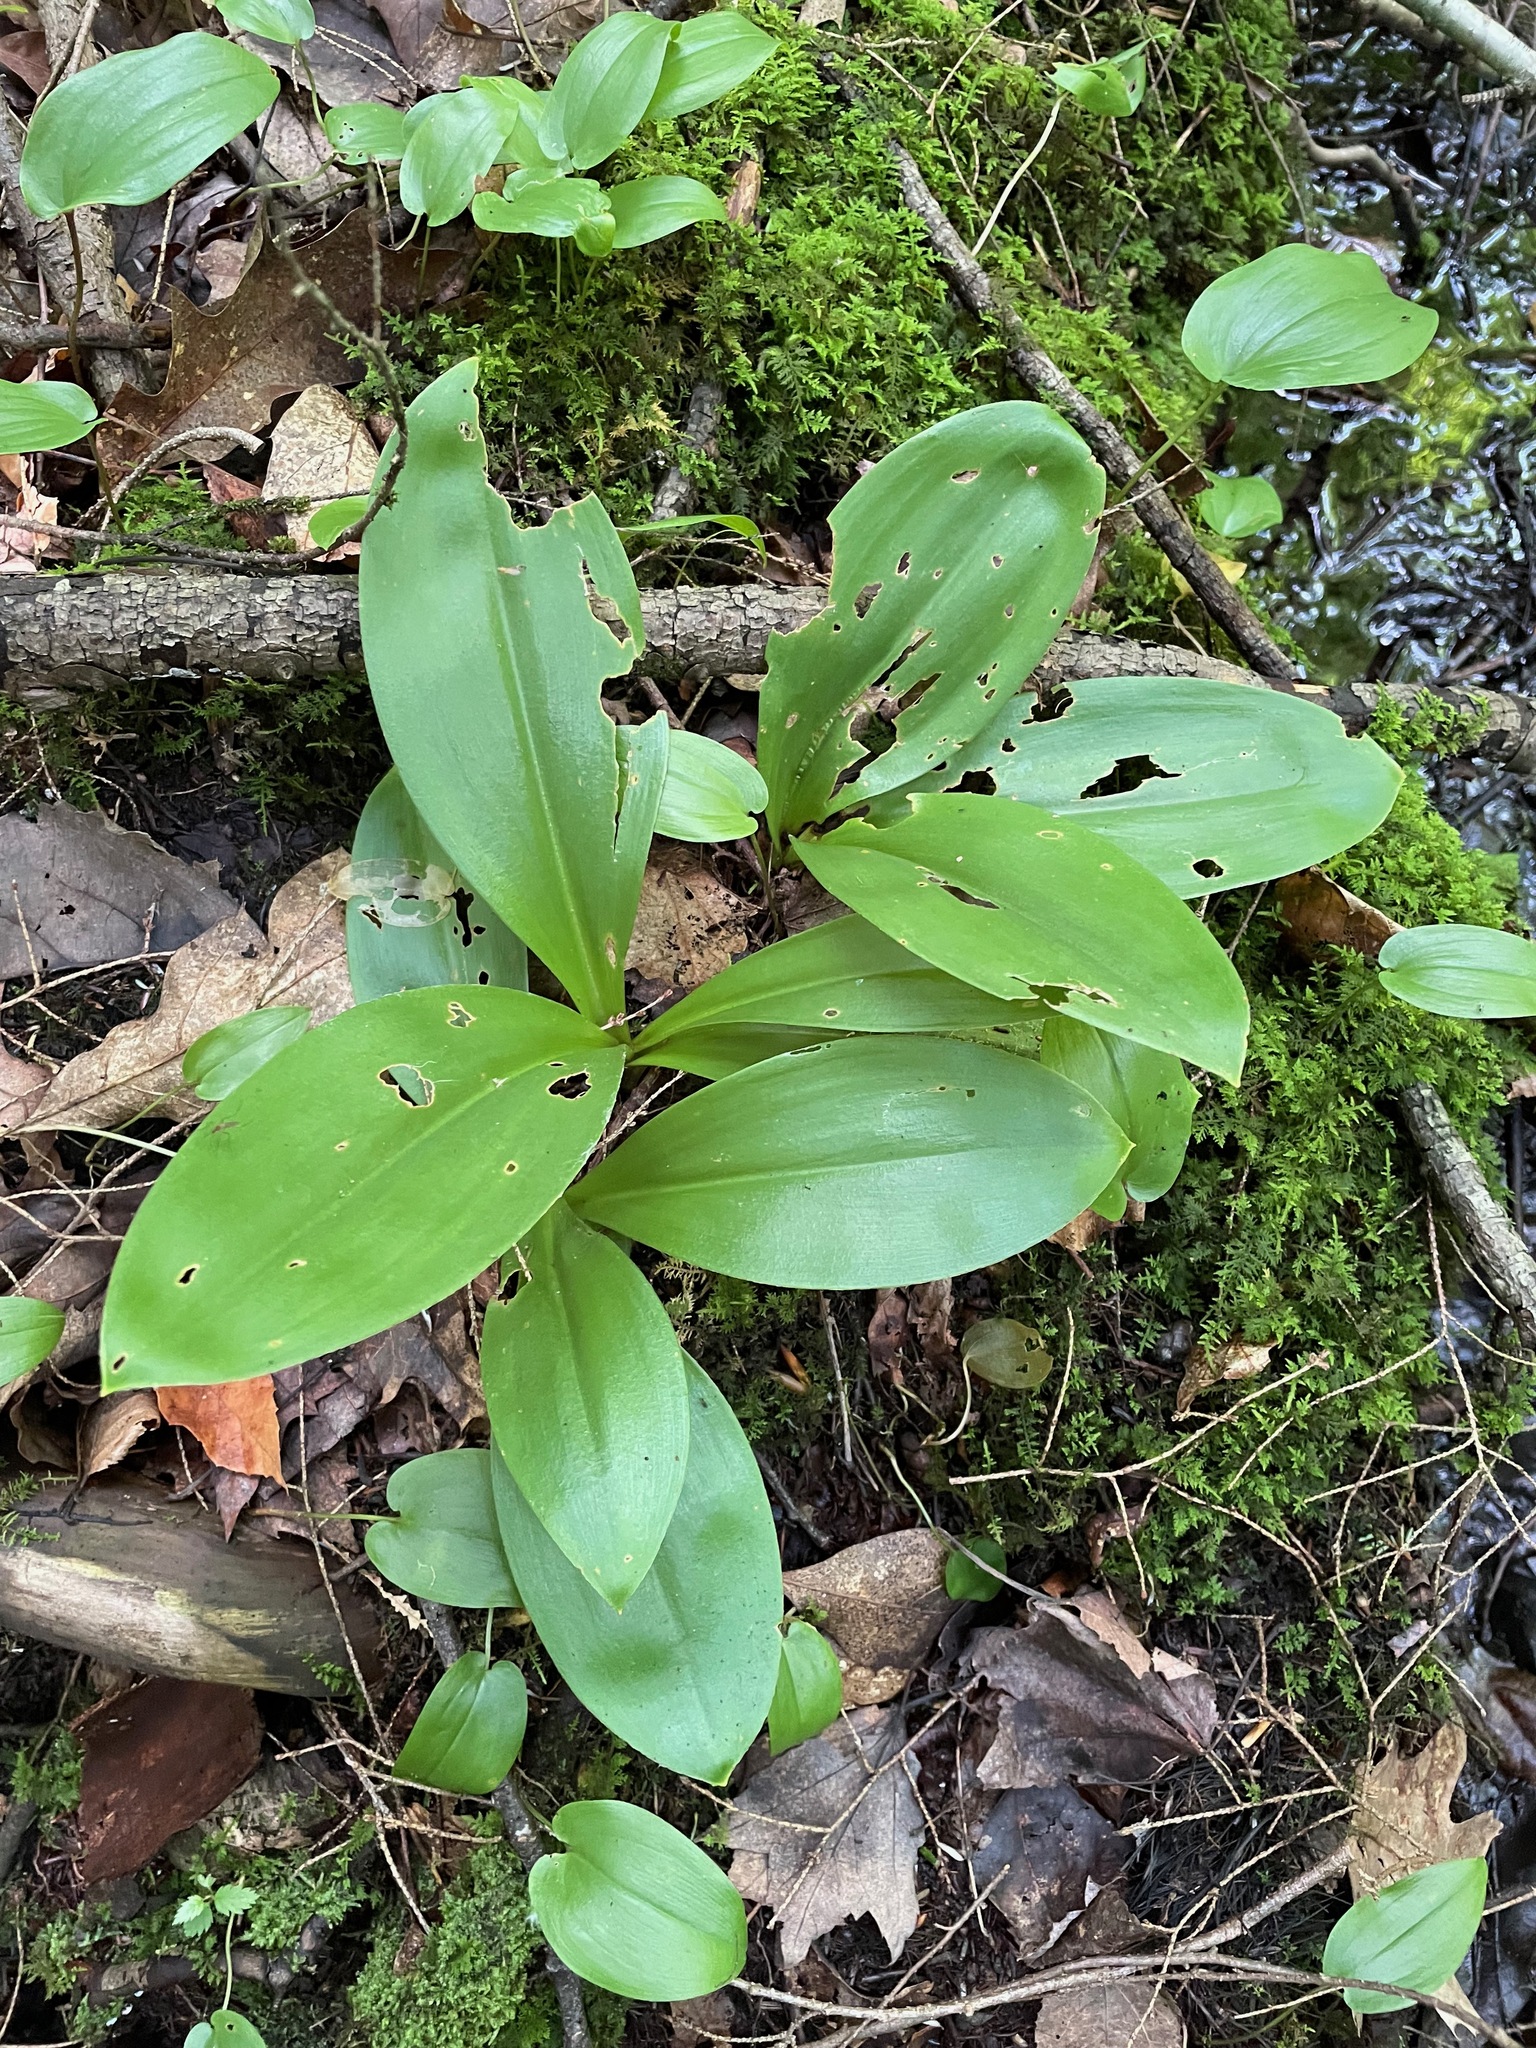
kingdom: Plantae
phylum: Tracheophyta
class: Liliopsida
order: Liliales
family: Liliaceae
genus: Clintonia
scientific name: Clintonia borealis
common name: Yellow clintonia
